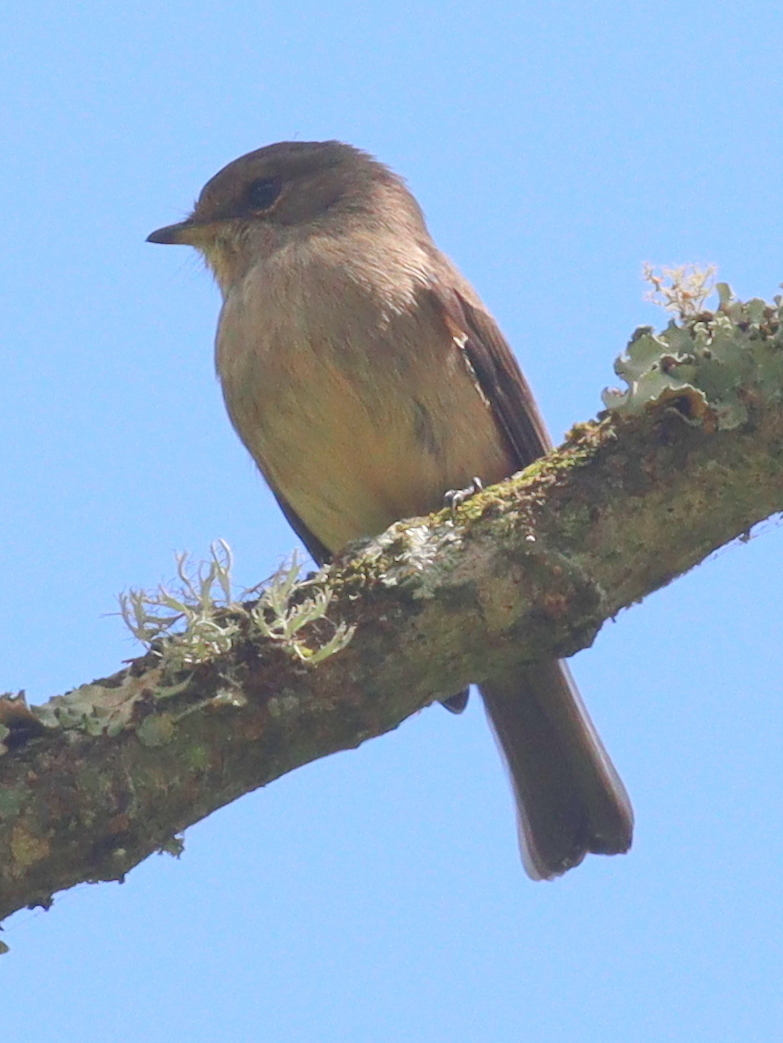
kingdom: Animalia
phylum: Chordata
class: Aves
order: Passeriformes
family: Muscicapidae
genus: Muscicapa
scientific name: Muscicapa adusta
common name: African dusky flycatcher
